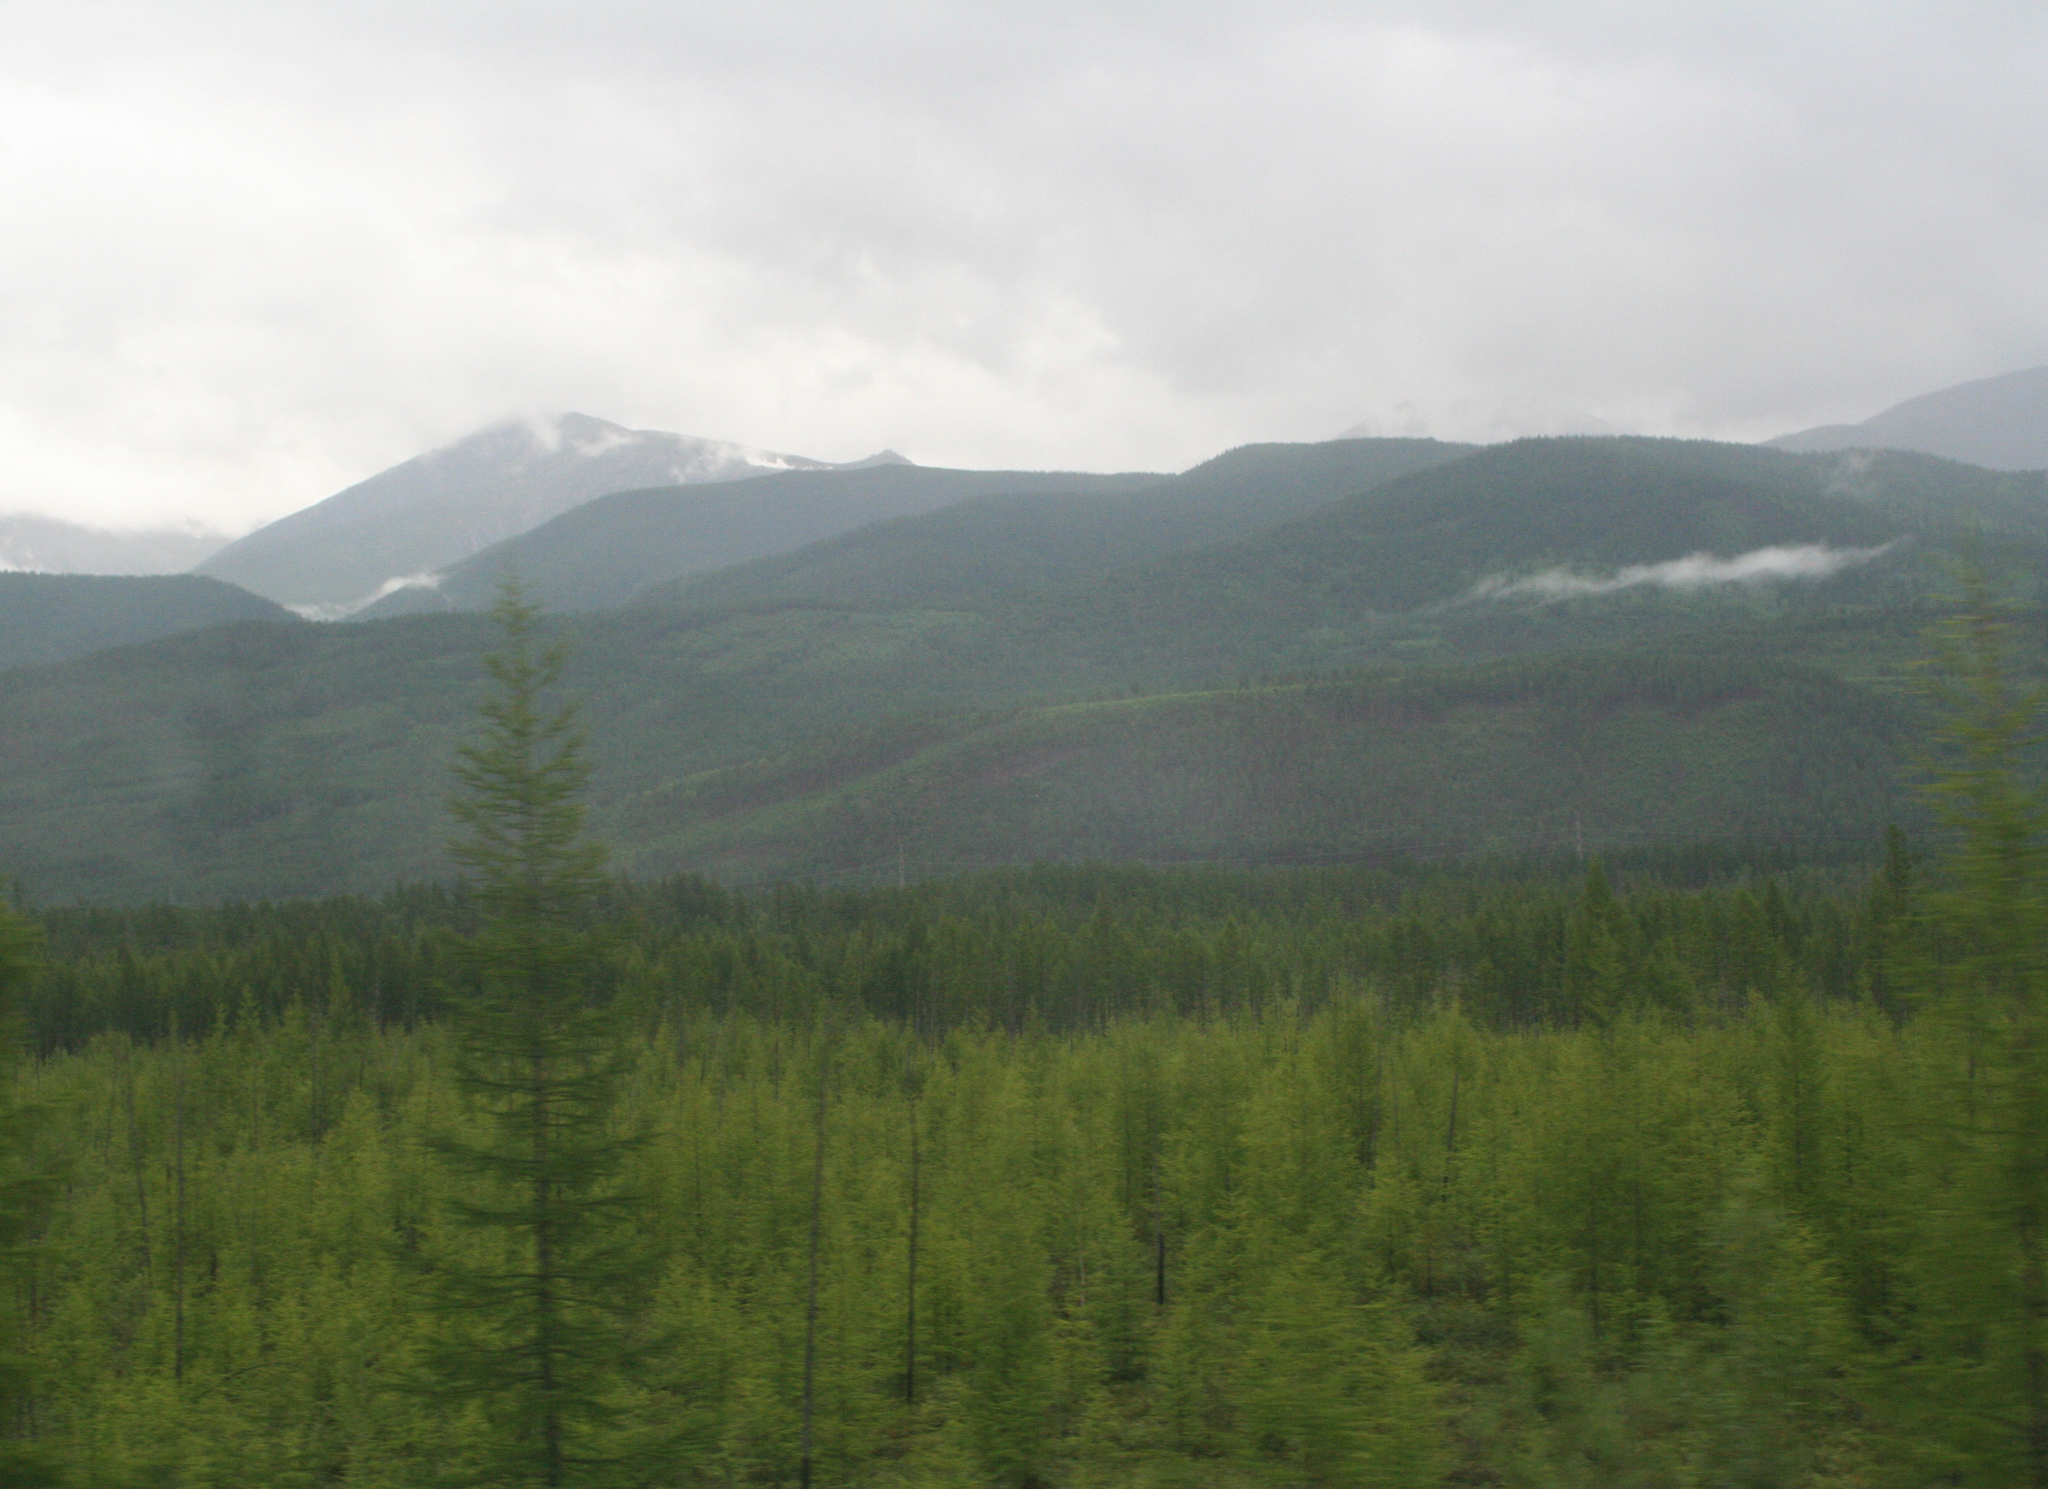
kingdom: Plantae
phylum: Tracheophyta
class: Pinopsida
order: Pinales
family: Pinaceae
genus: Larix
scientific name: Larix gmelinii
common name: Dahurian larch
